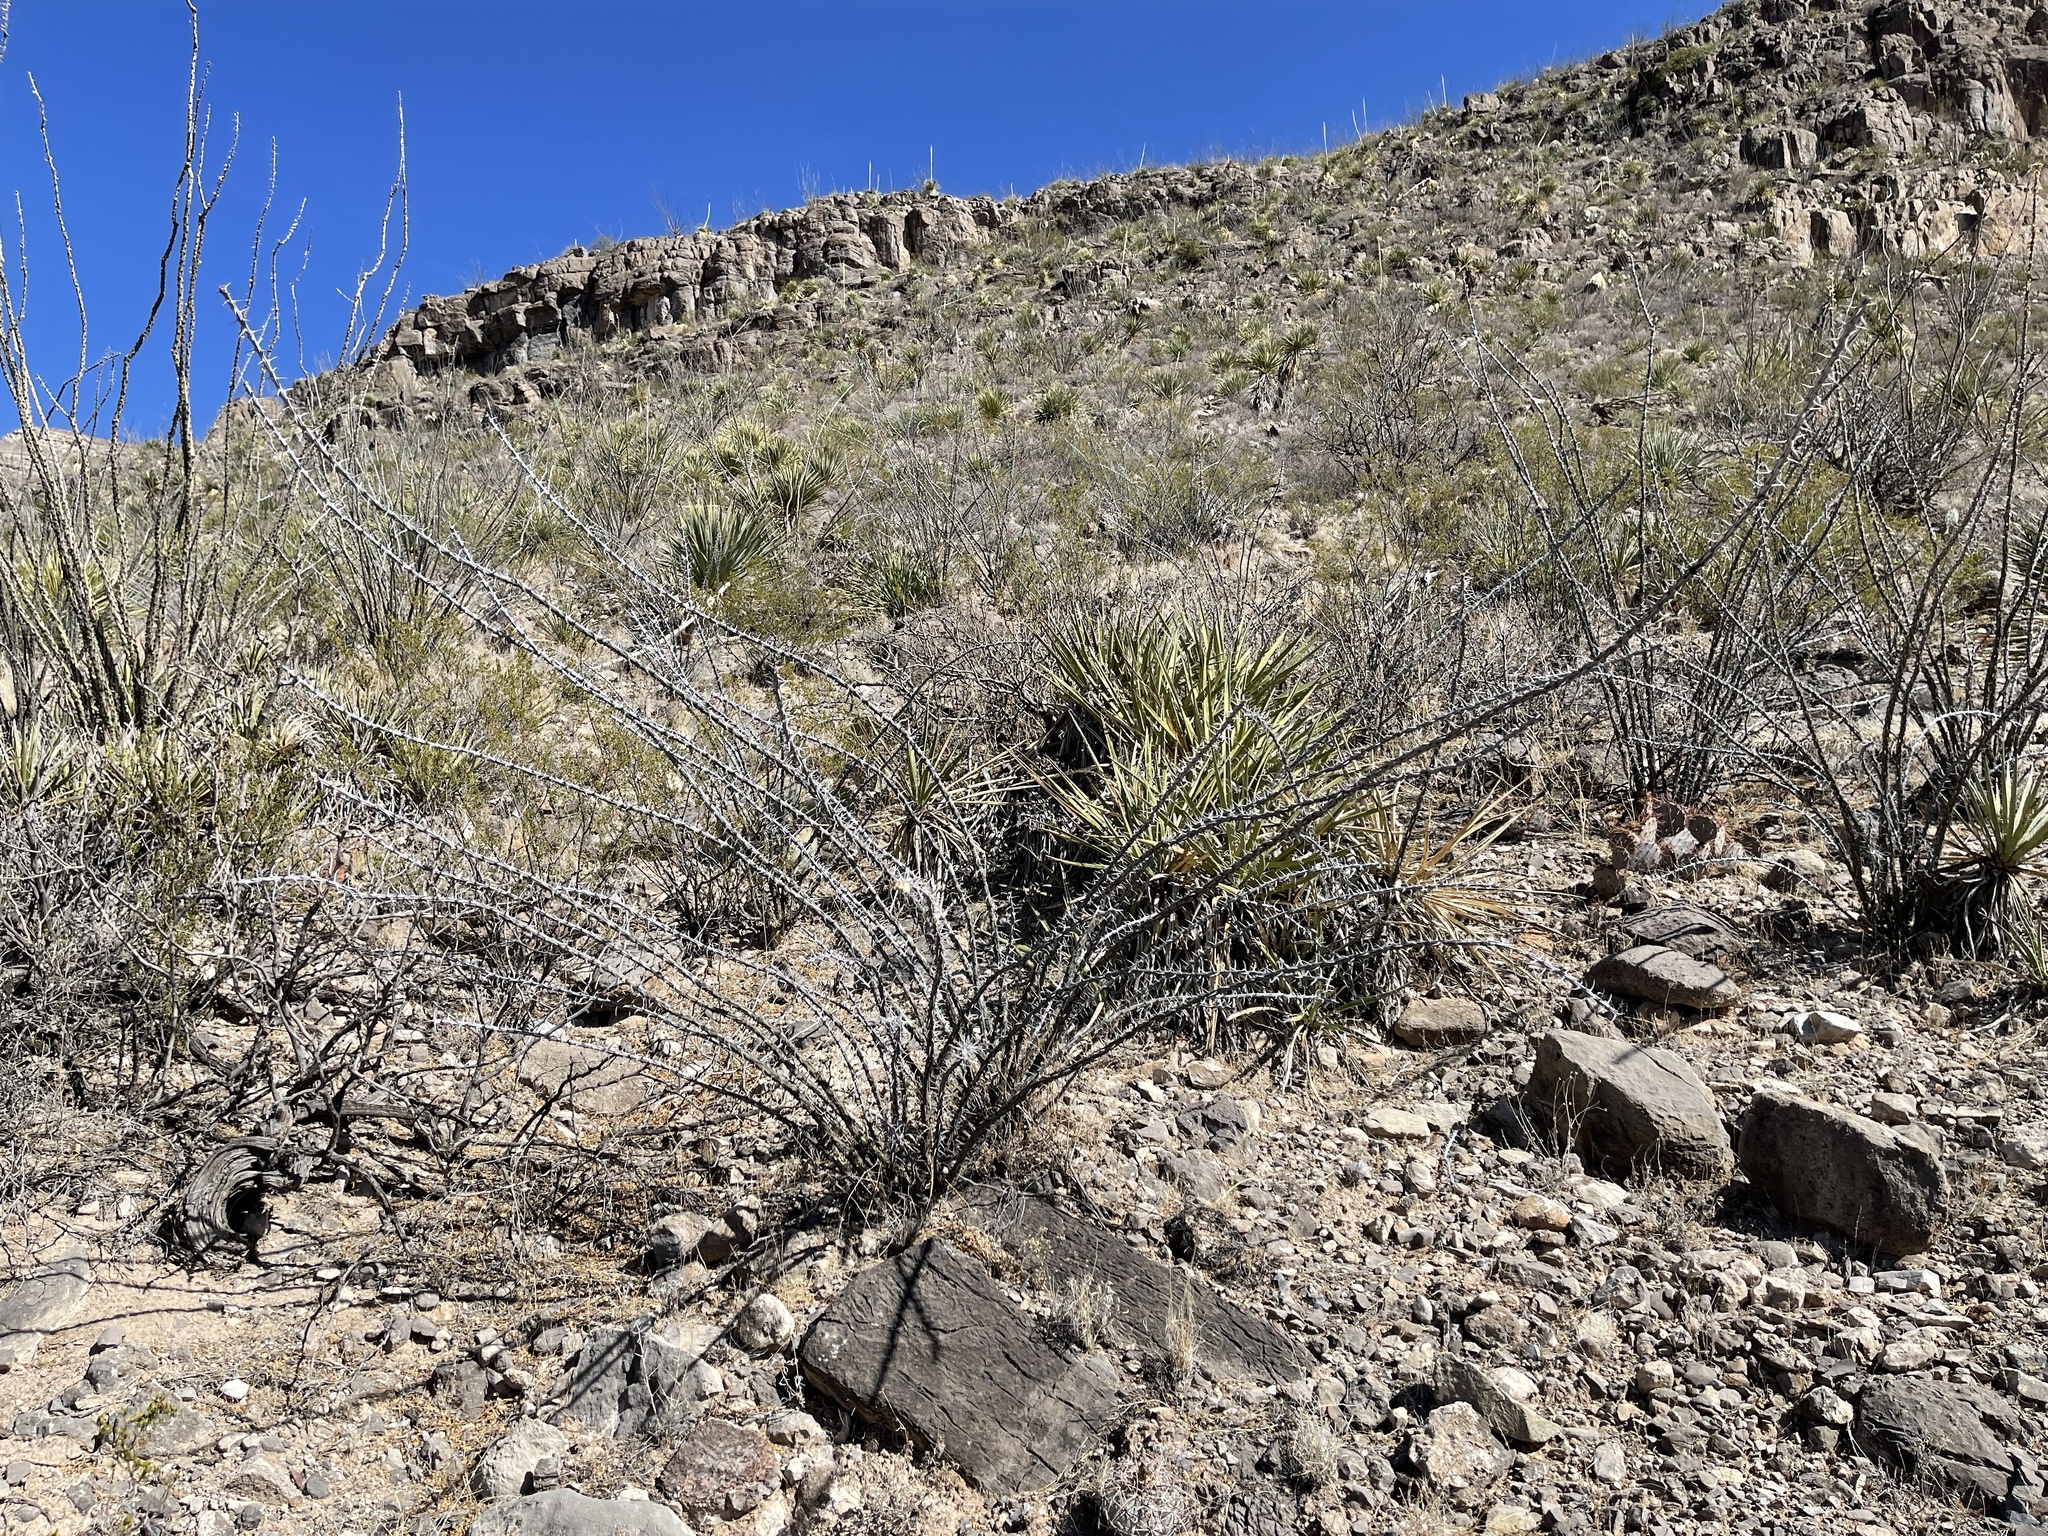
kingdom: Plantae
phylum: Tracheophyta
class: Magnoliopsida
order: Ericales
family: Fouquieriaceae
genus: Fouquieria
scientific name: Fouquieria splendens
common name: Vine-cactus
